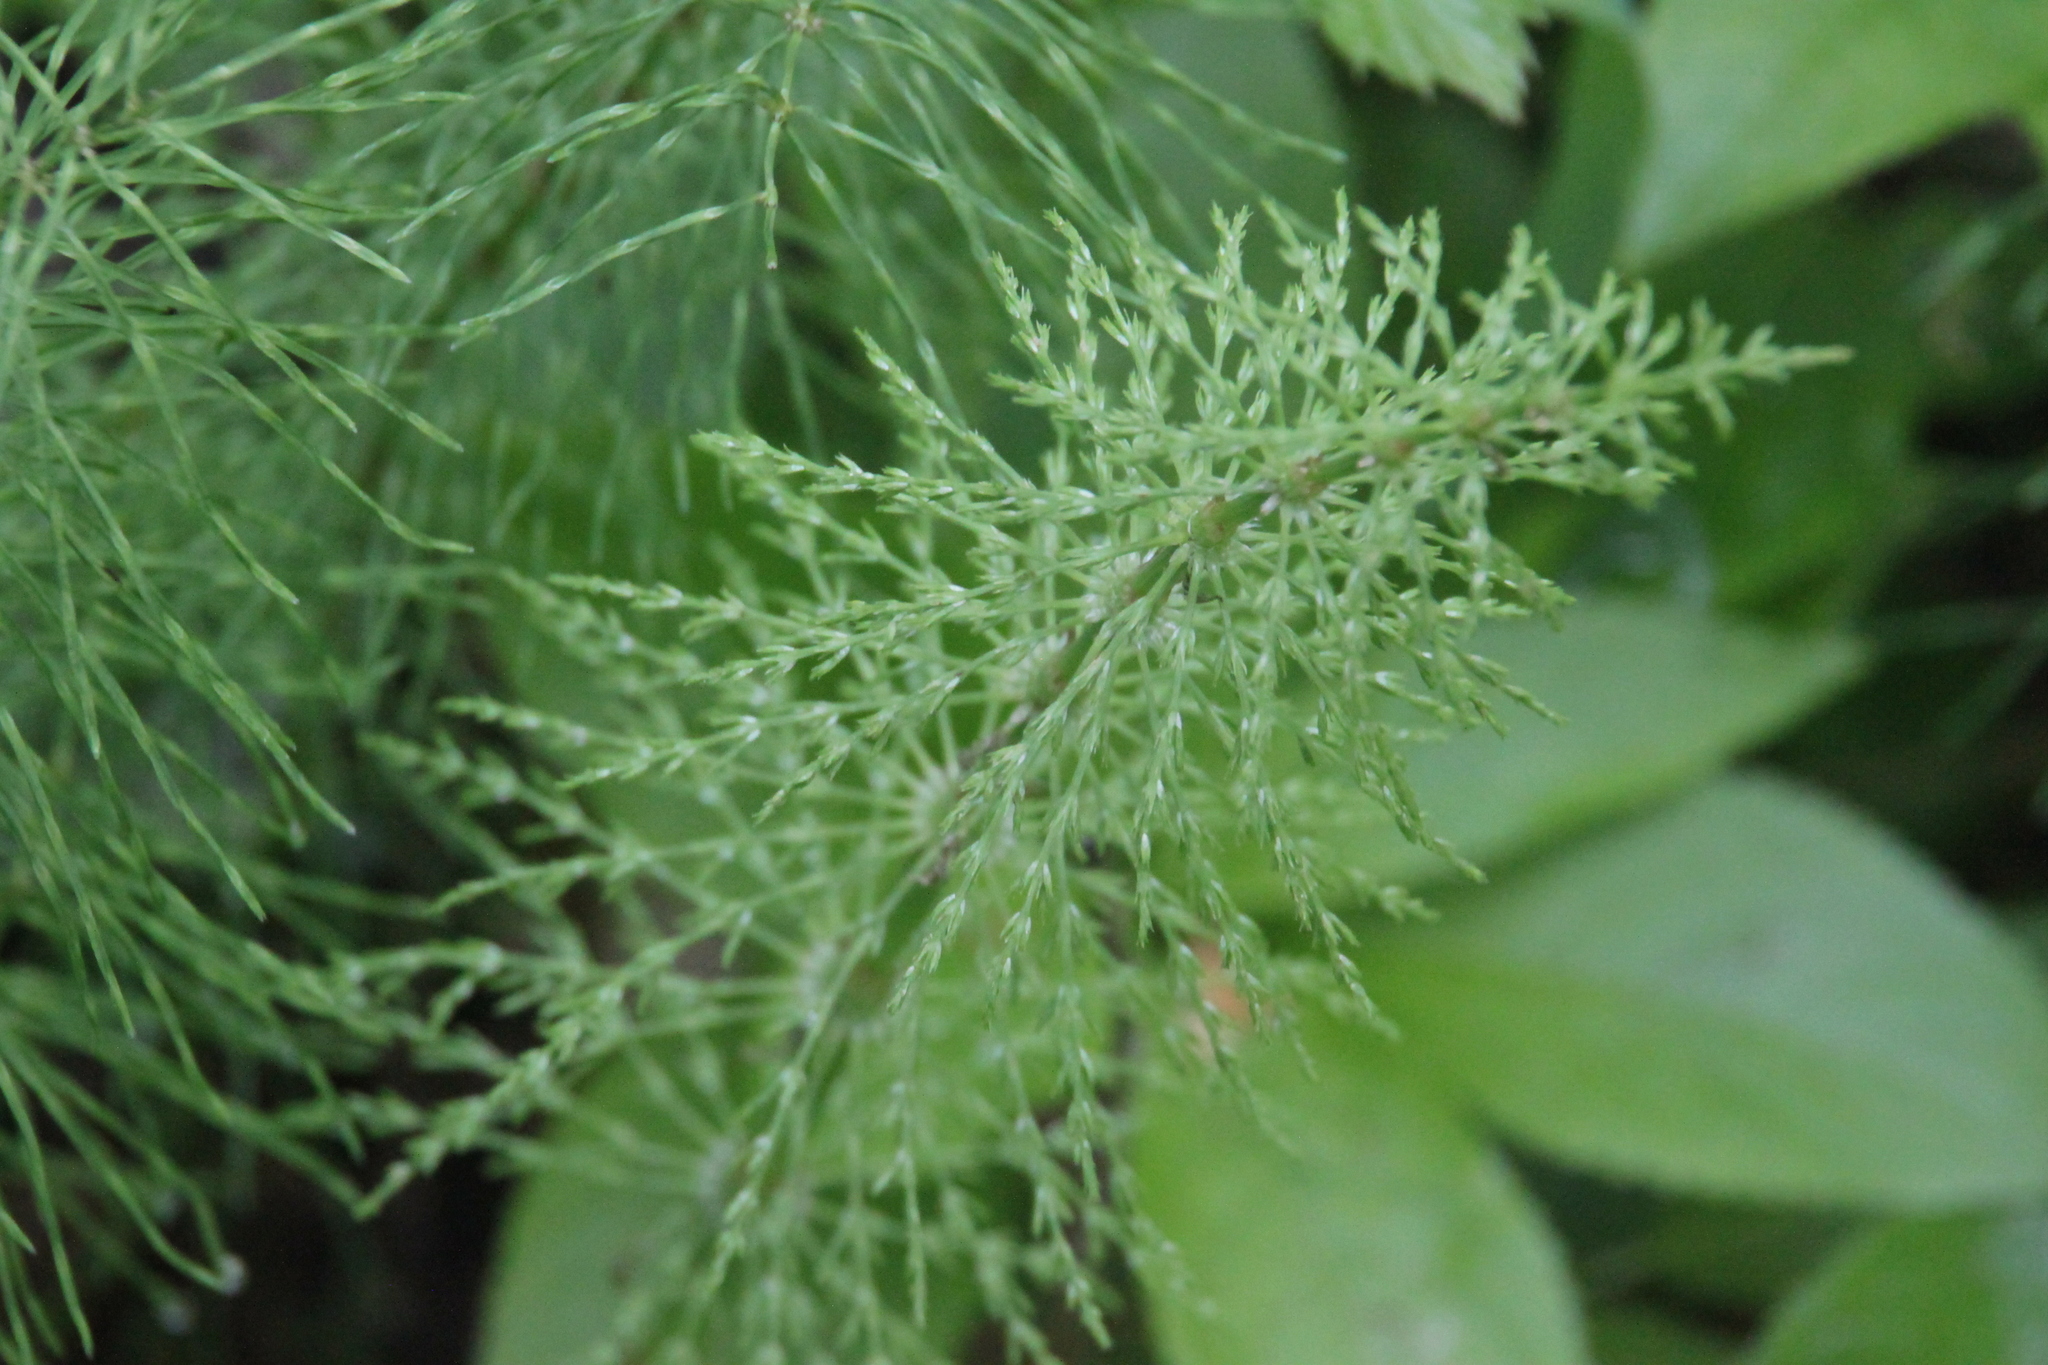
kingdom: Plantae
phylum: Tracheophyta
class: Polypodiopsida
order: Equisetales
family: Equisetaceae
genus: Equisetum
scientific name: Equisetum sylvaticum
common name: Wood horsetail
